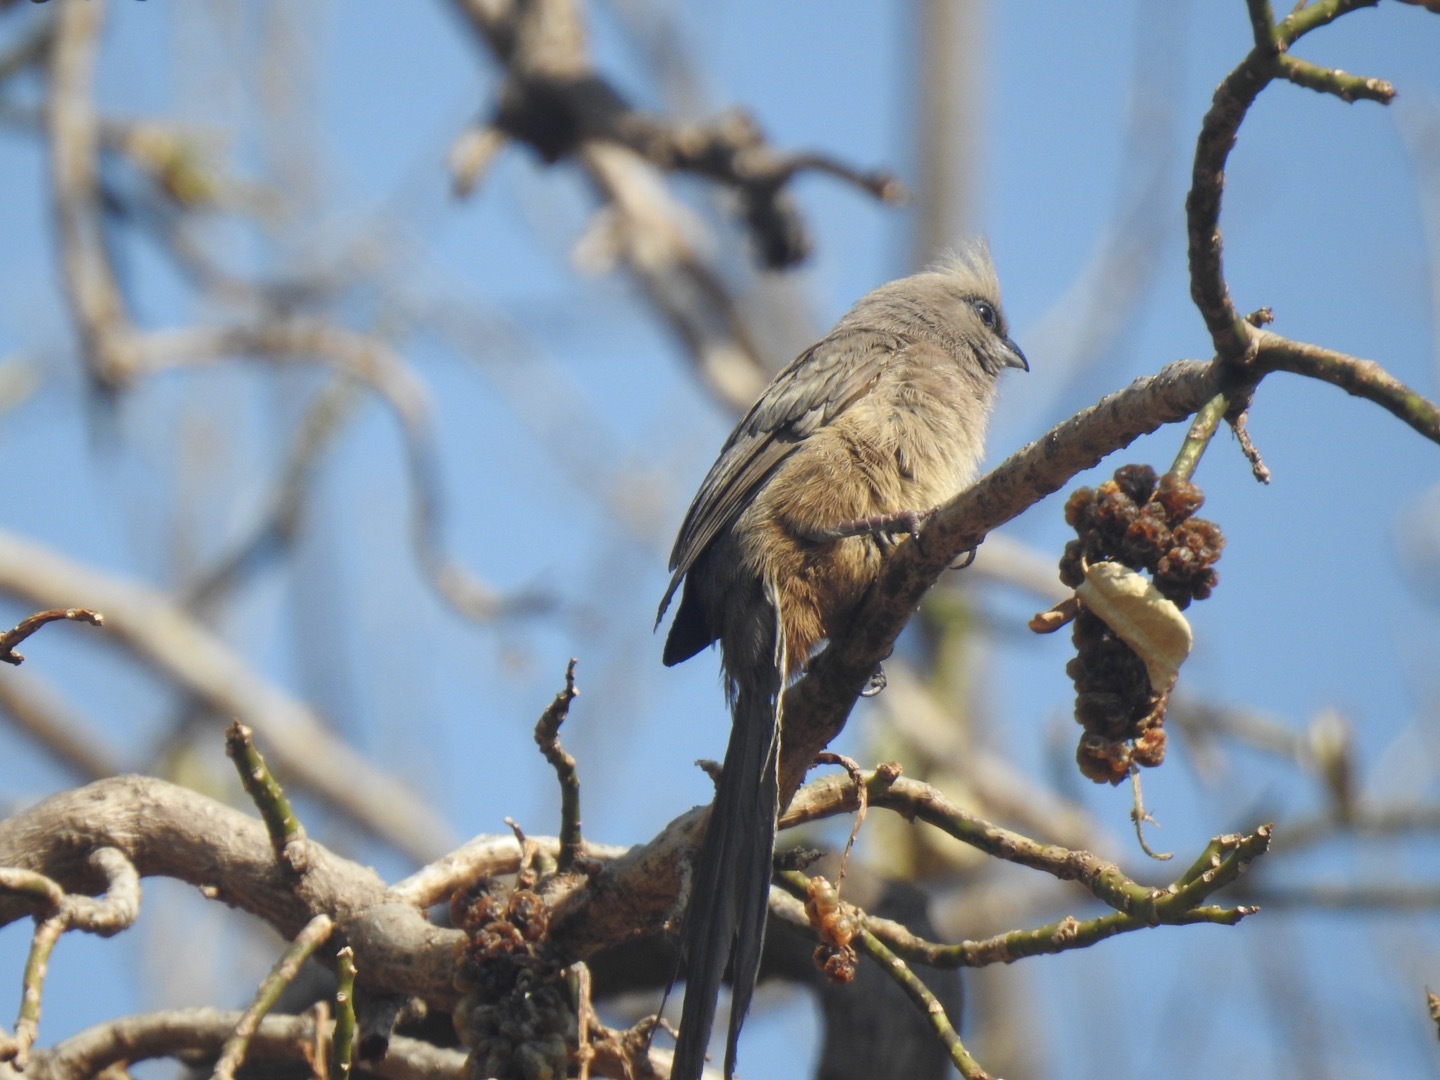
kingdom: Animalia
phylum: Chordata
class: Aves
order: Coliiformes
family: Coliidae
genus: Colius
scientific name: Colius striatus
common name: Speckled mousebird
